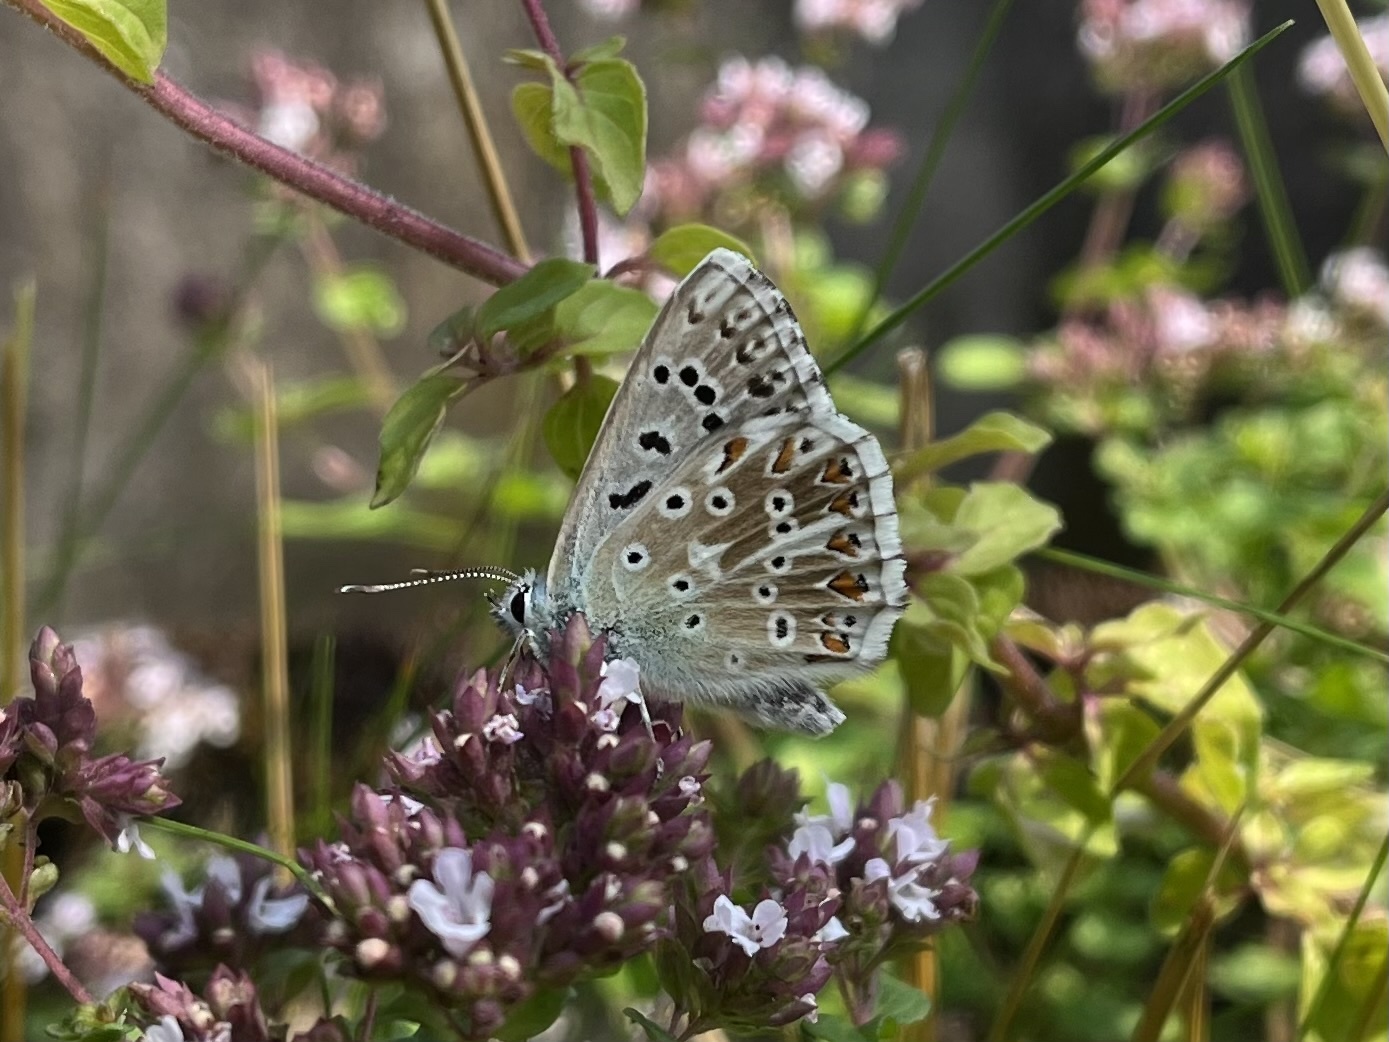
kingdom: Animalia
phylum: Arthropoda
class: Insecta
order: Lepidoptera
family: Lycaenidae
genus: Lysandra
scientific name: Lysandra coridon
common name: Chalkhill blue
